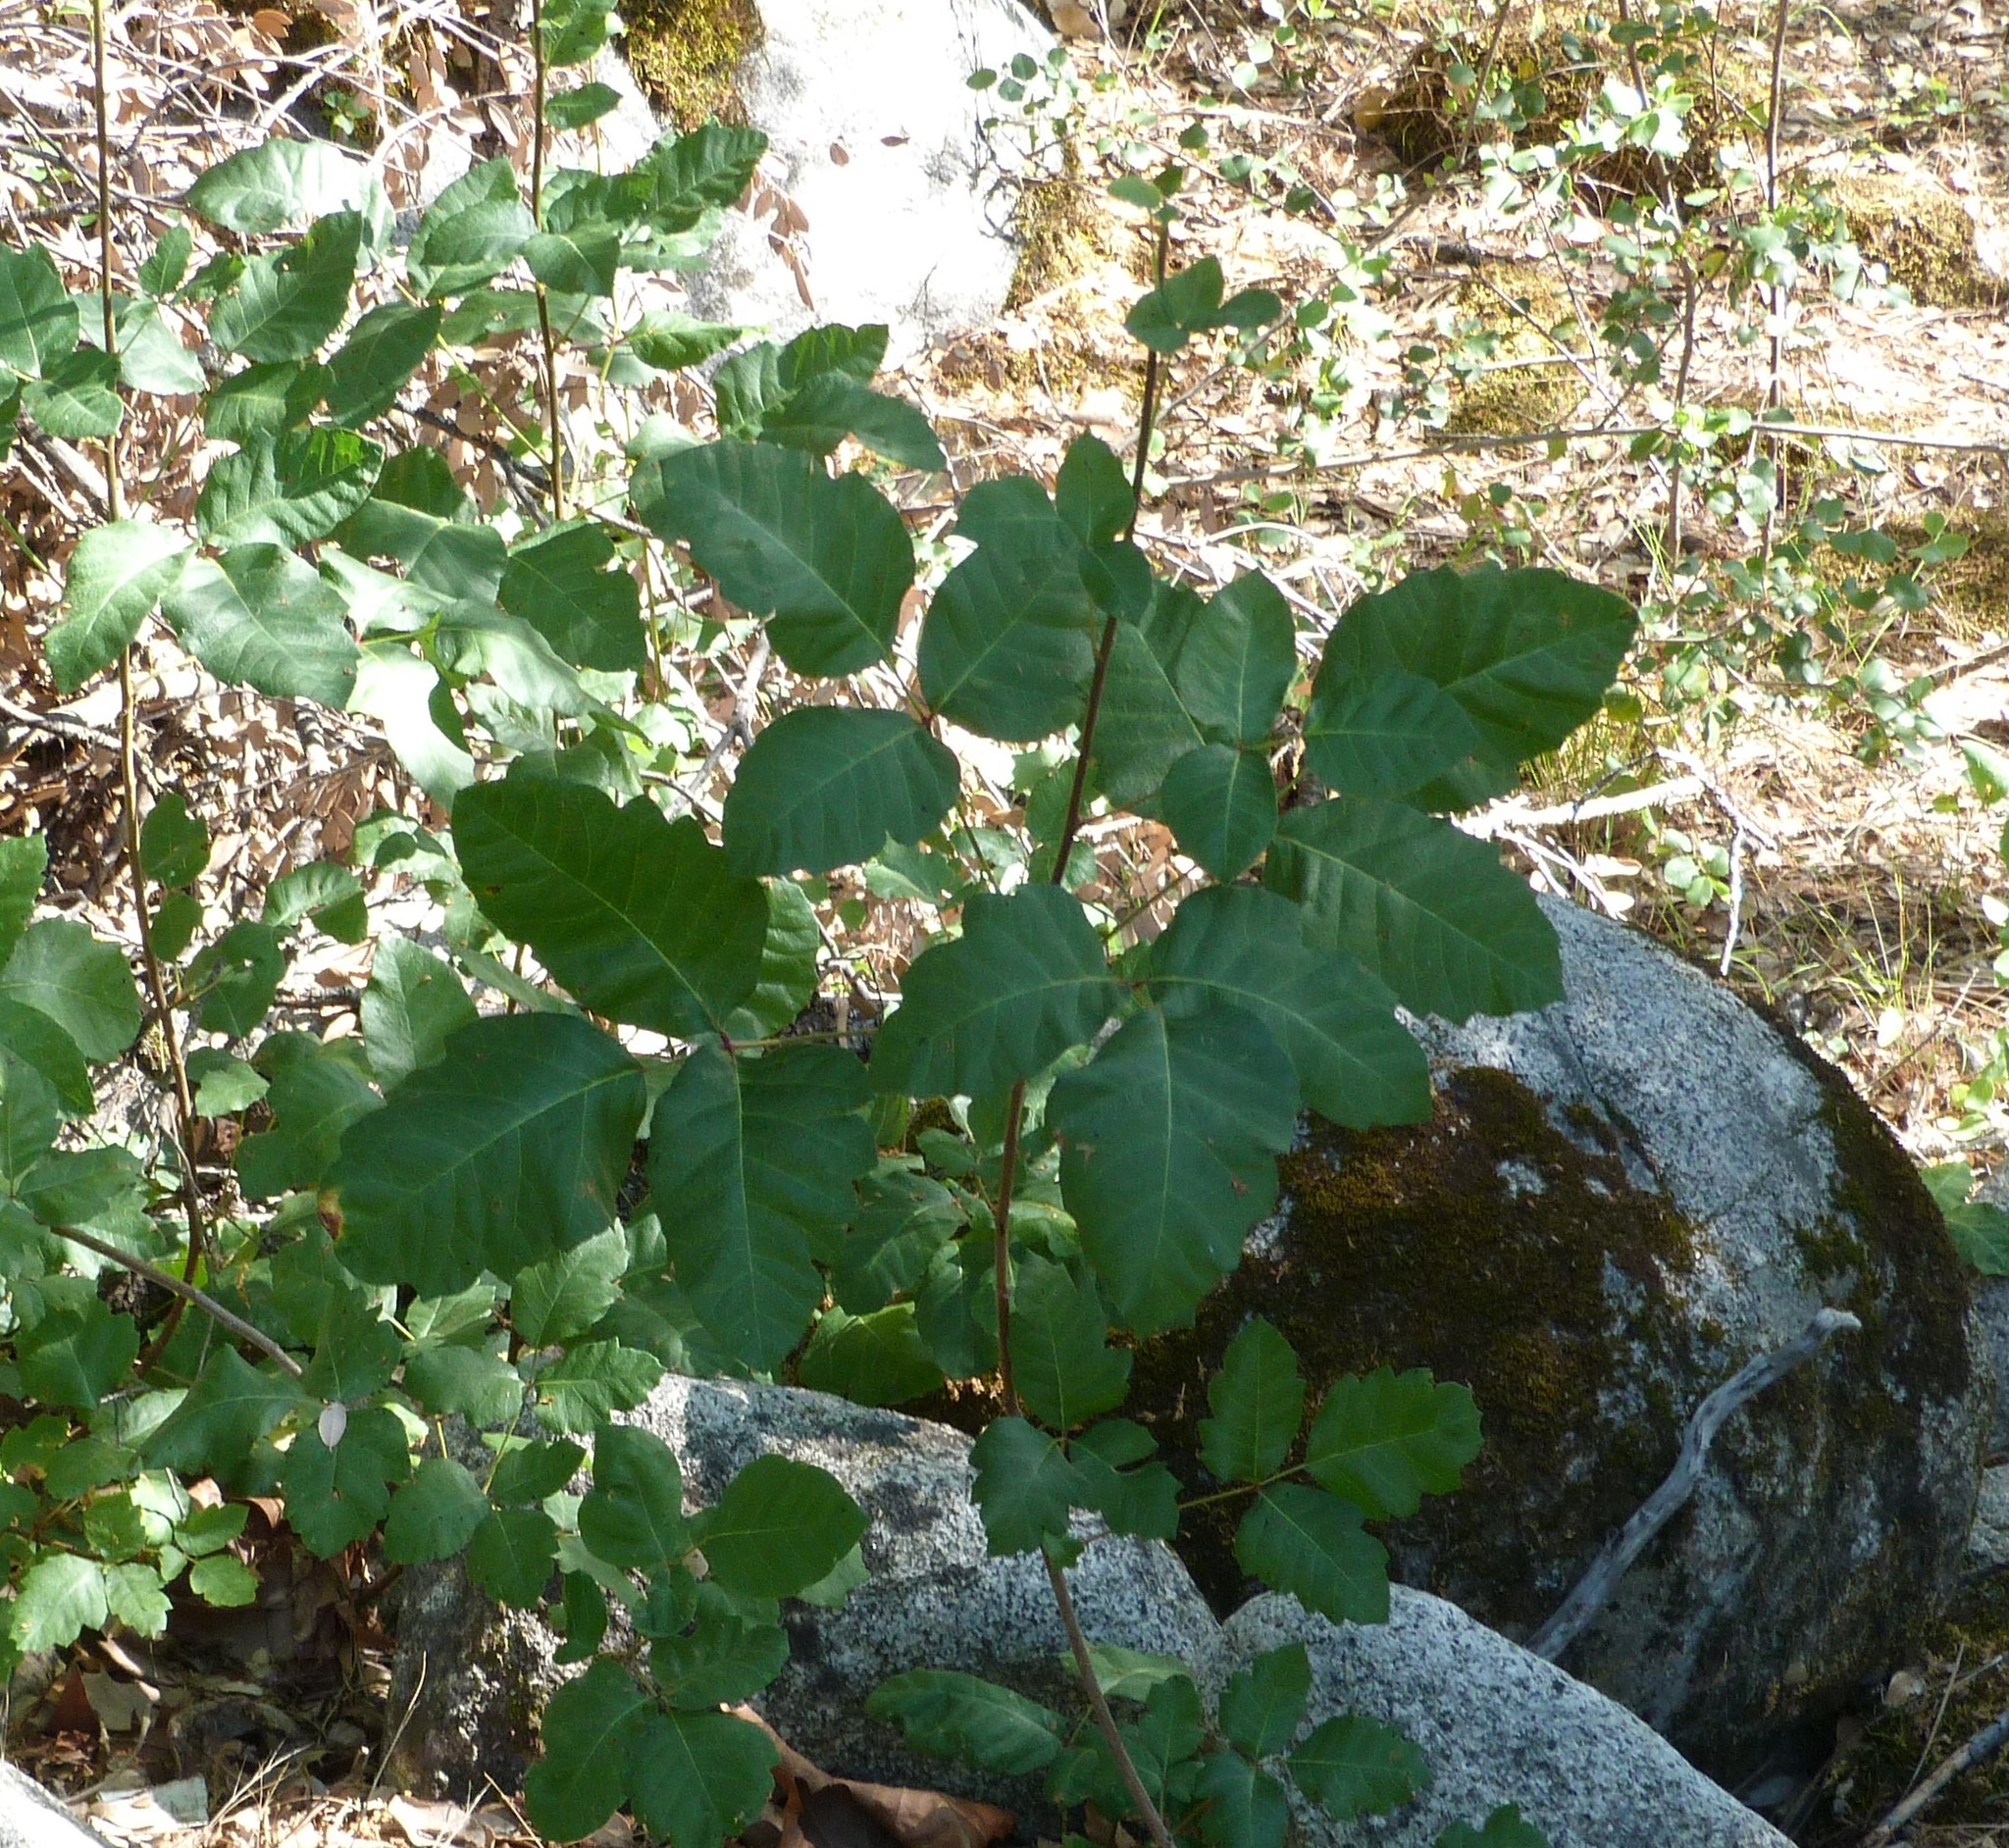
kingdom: Plantae
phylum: Tracheophyta
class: Magnoliopsida
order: Sapindales
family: Anacardiaceae
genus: Toxicodendron
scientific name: Toxicodendron diversilobum
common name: Pacific poison-oak
